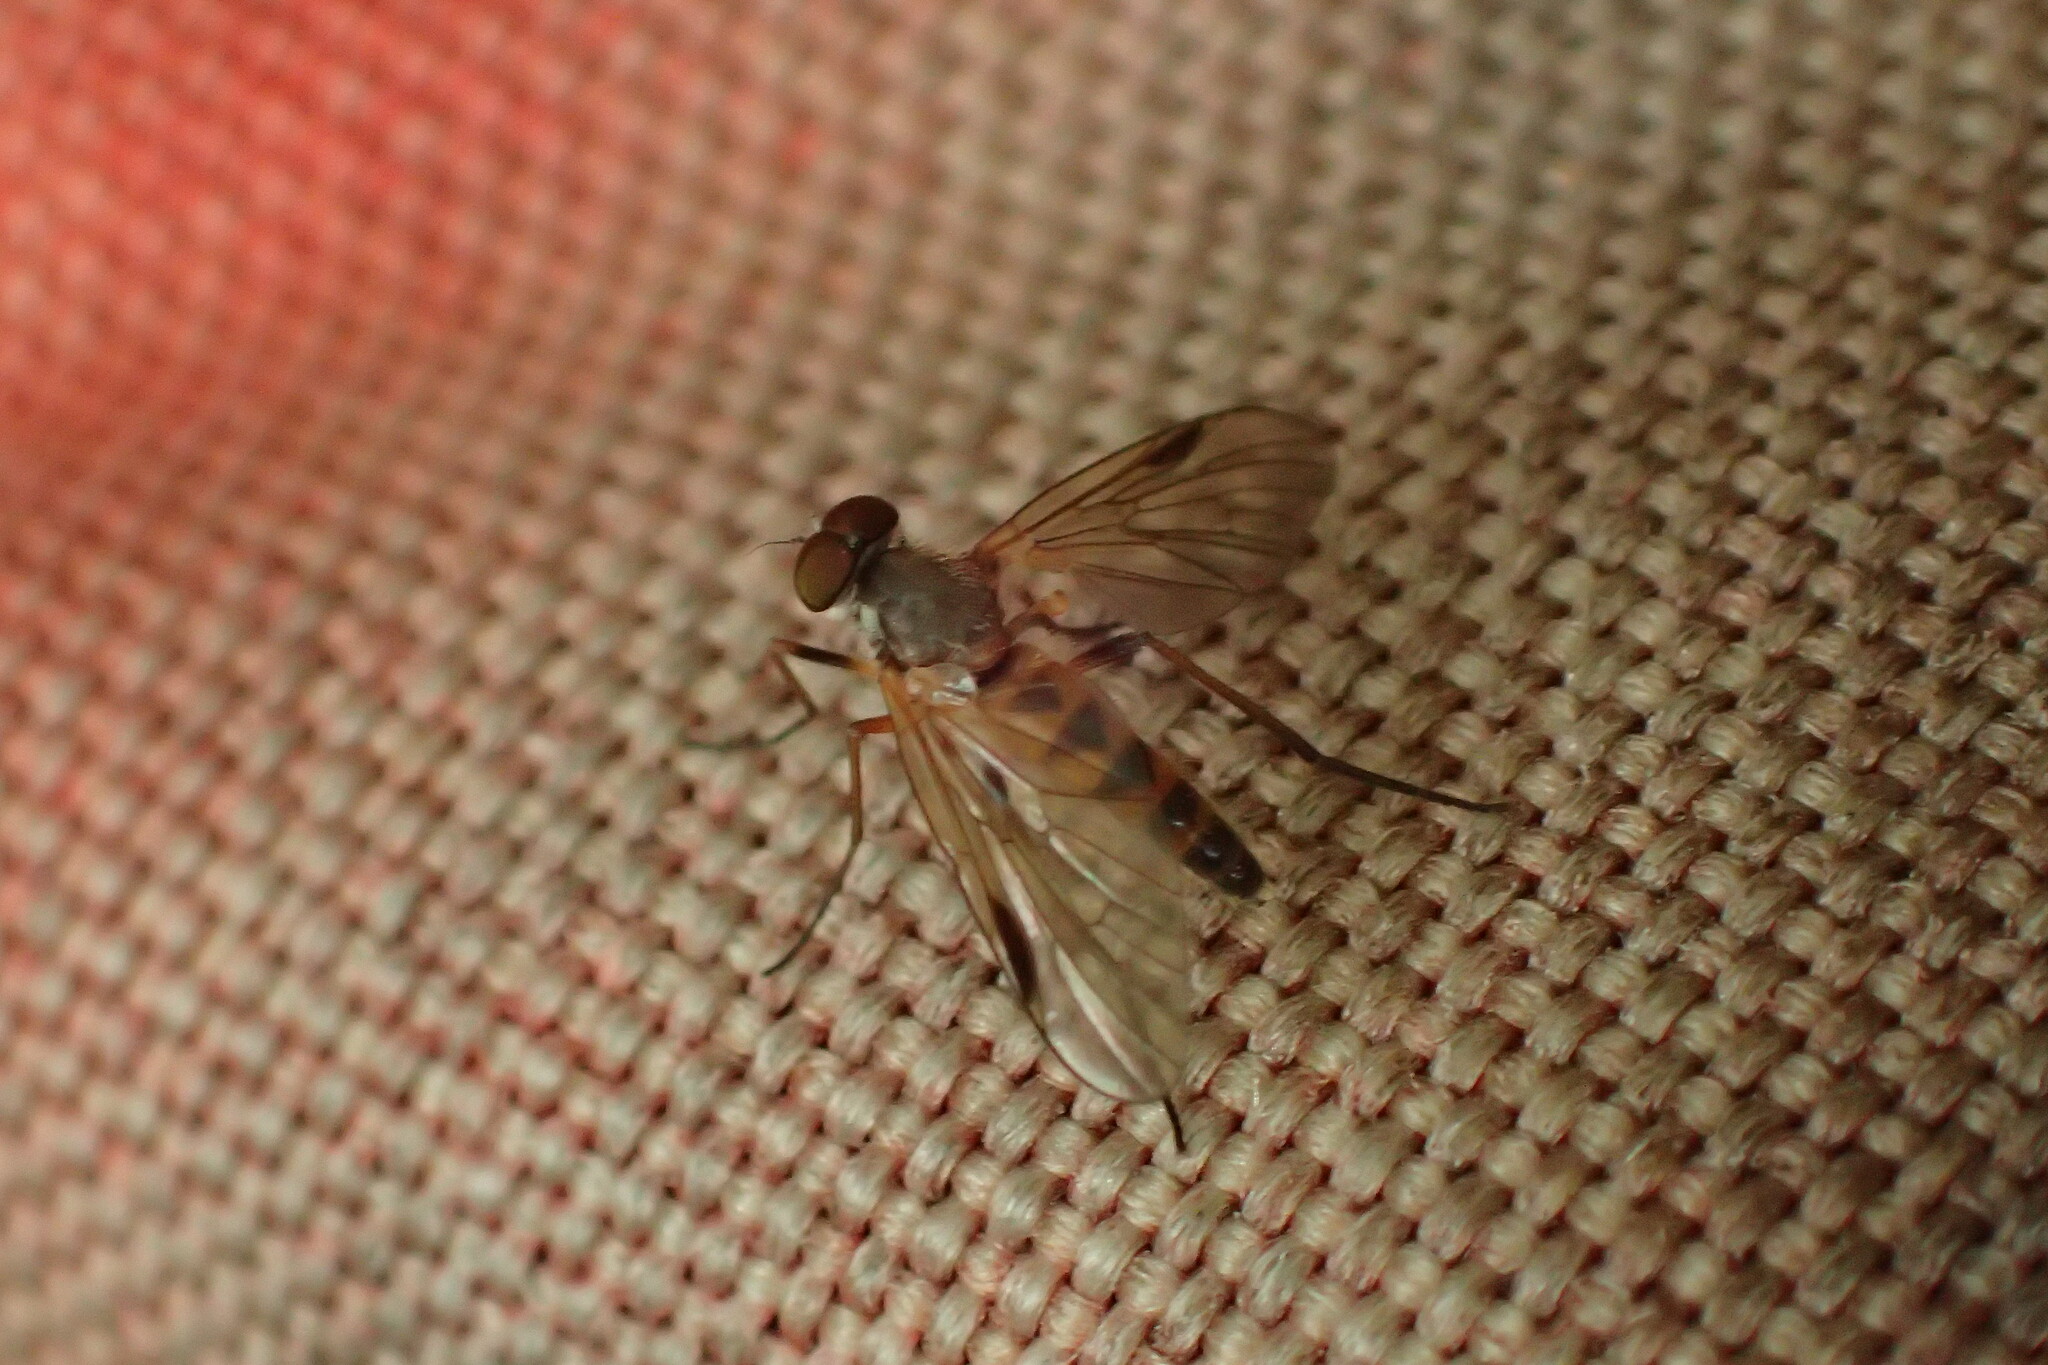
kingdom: Animalia
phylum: Arthropoda
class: Insecta
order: Diptera
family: Rhagionidae
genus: Rhagio
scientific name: Rhagio lineola
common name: Small fleck-winged snipefly
